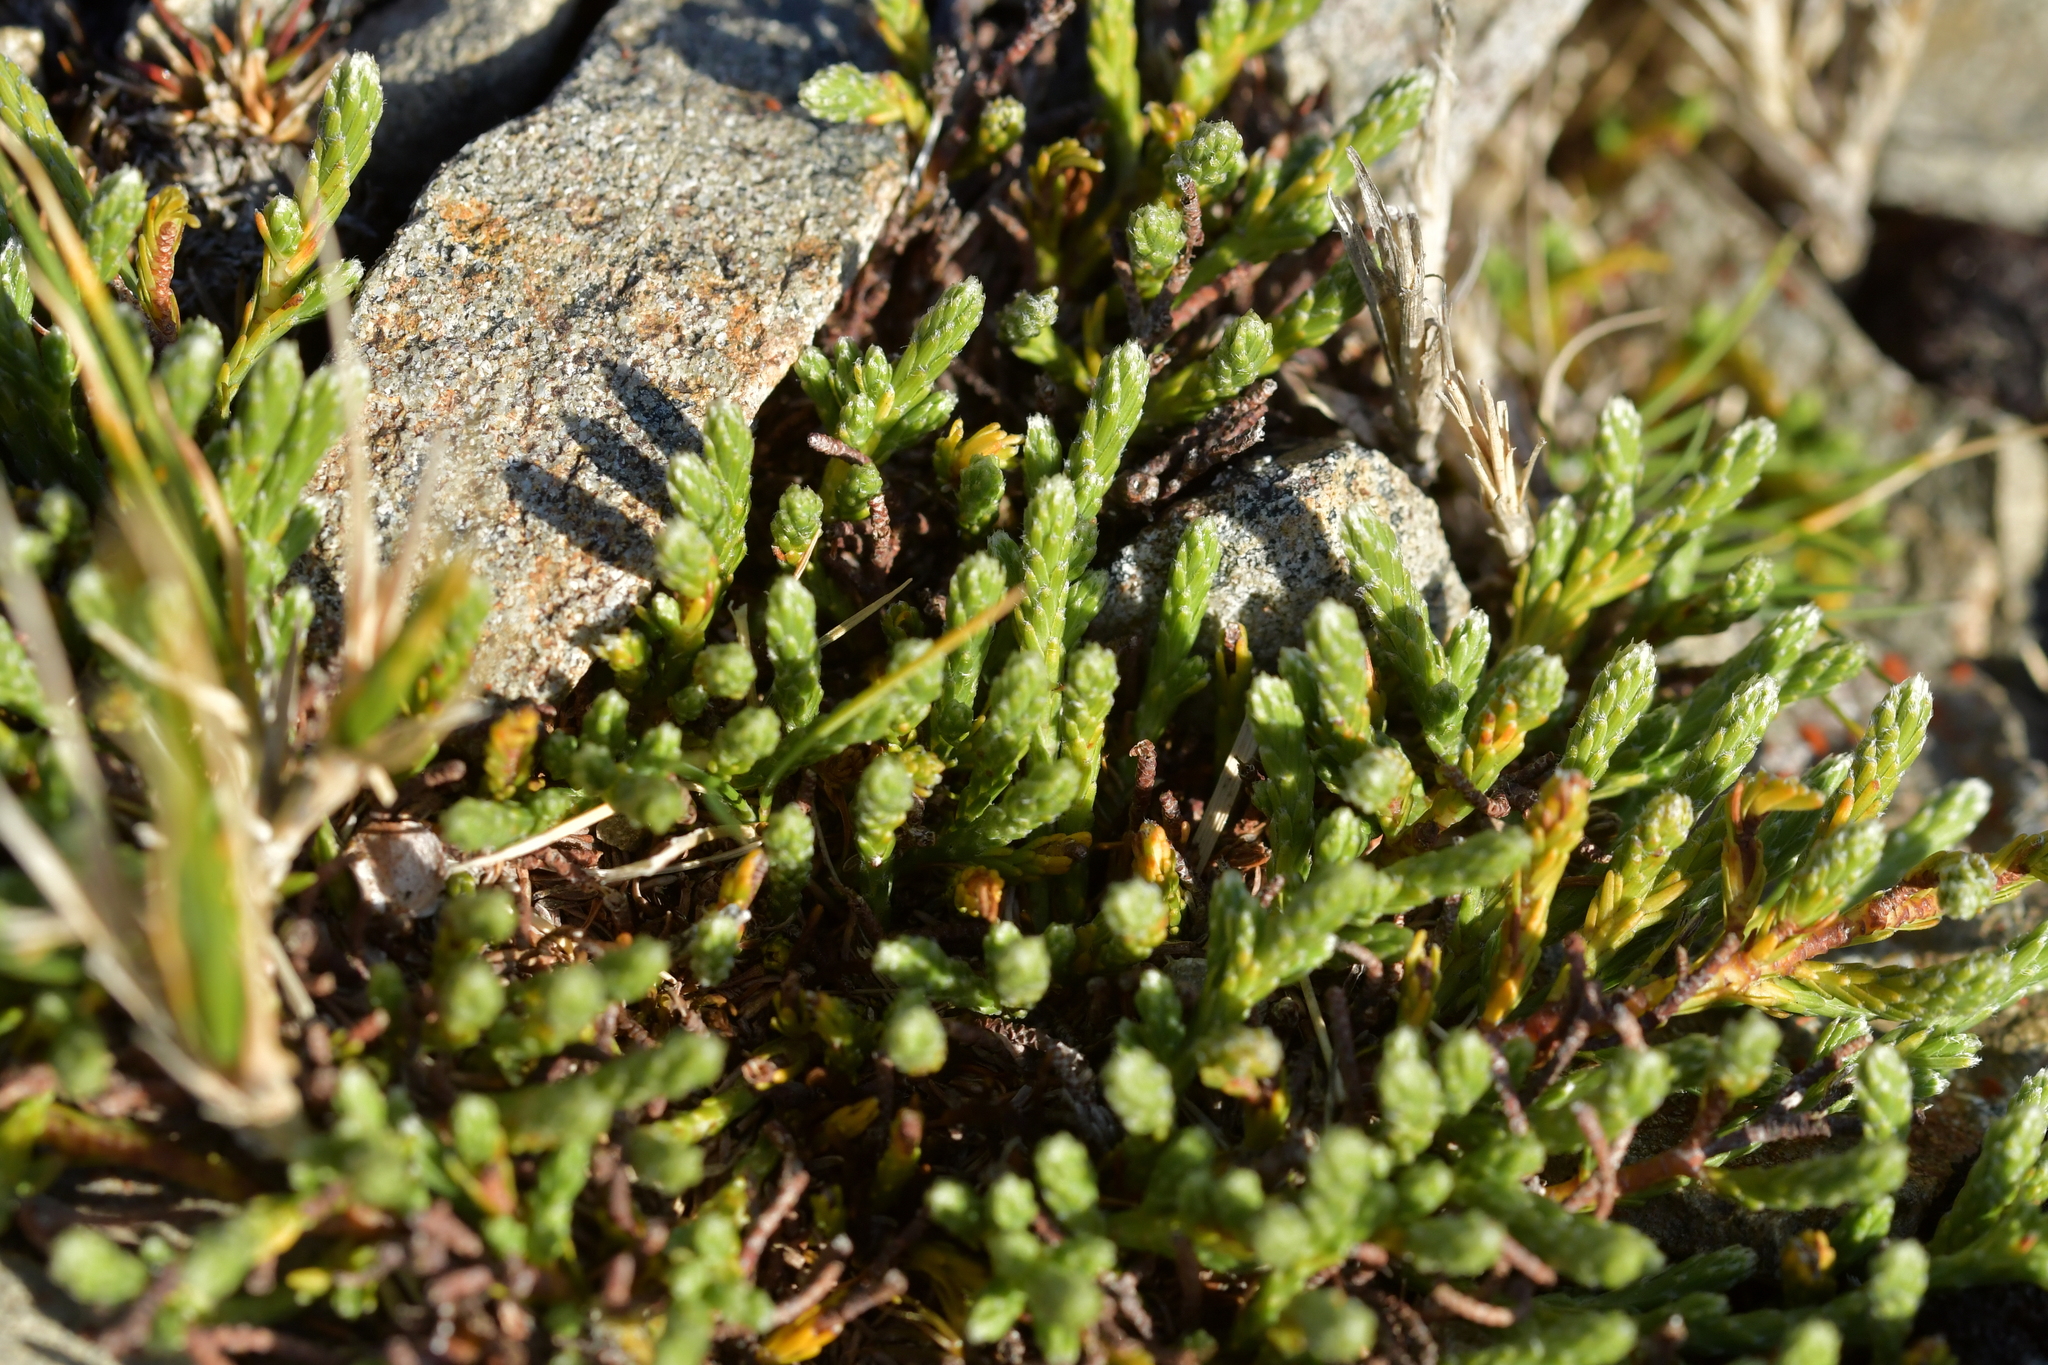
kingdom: Plantae
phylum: Tracheophyta
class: Magnoliopsida
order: Malvales
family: Thymelaeaceae
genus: Kelleria
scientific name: Kelleria dieffenbachii
